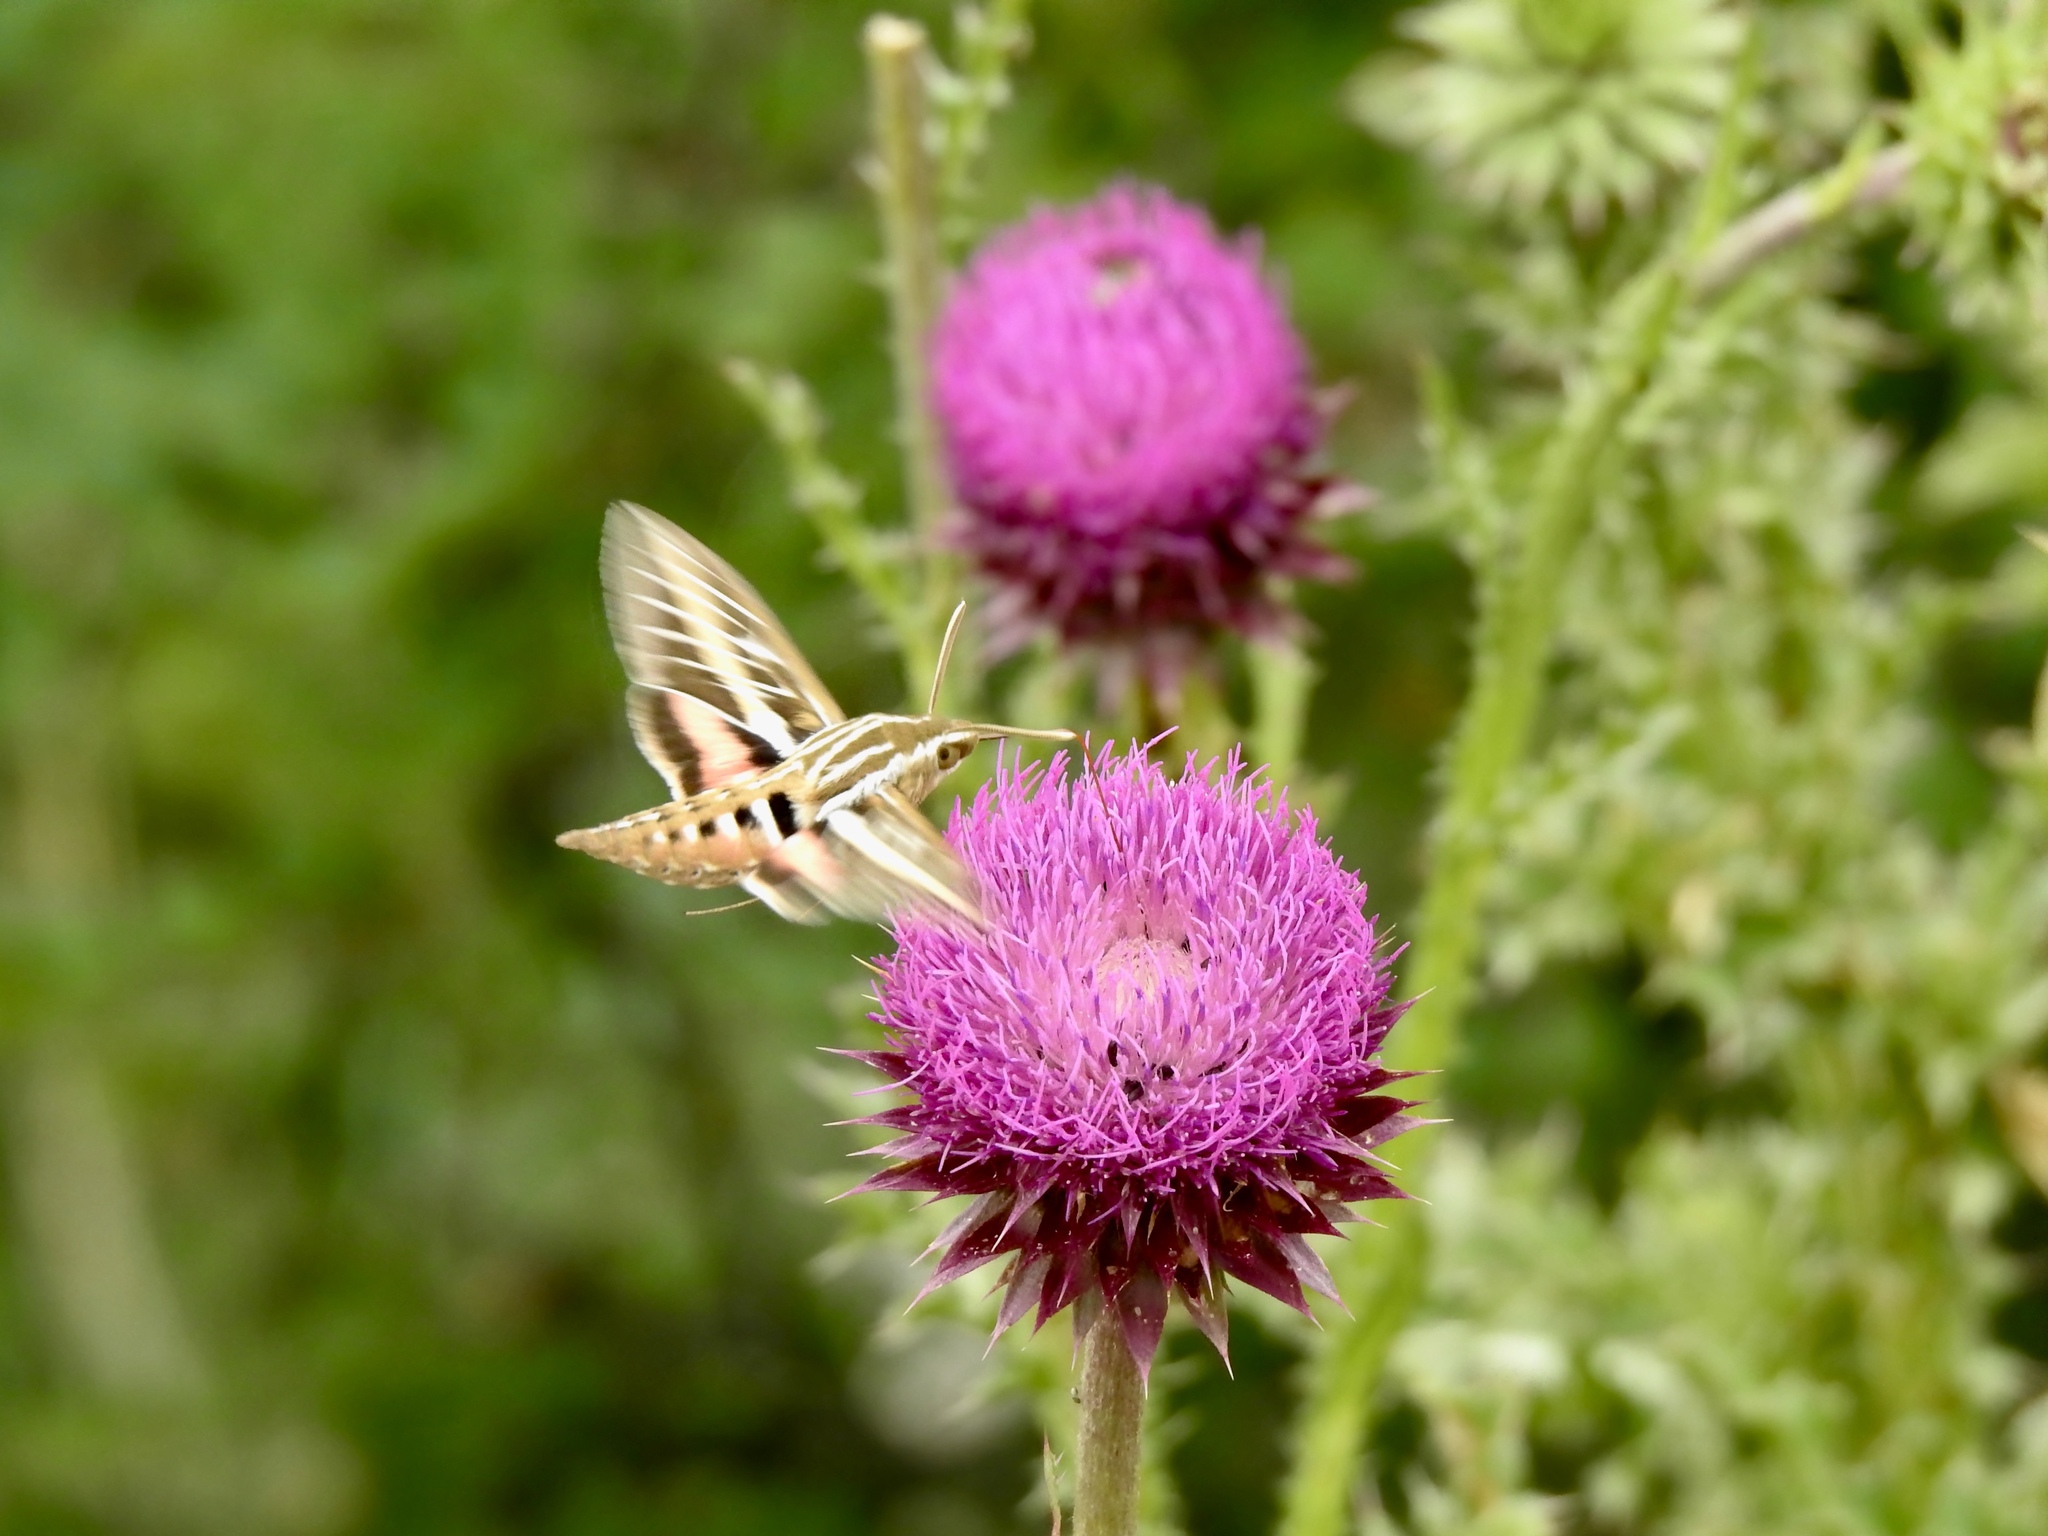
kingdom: Animalia
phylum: Arthropoda
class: Insecta
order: Lepidoptera
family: Sphingidae
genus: Hyles
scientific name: Hyles lineata
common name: White-lined sphinx
